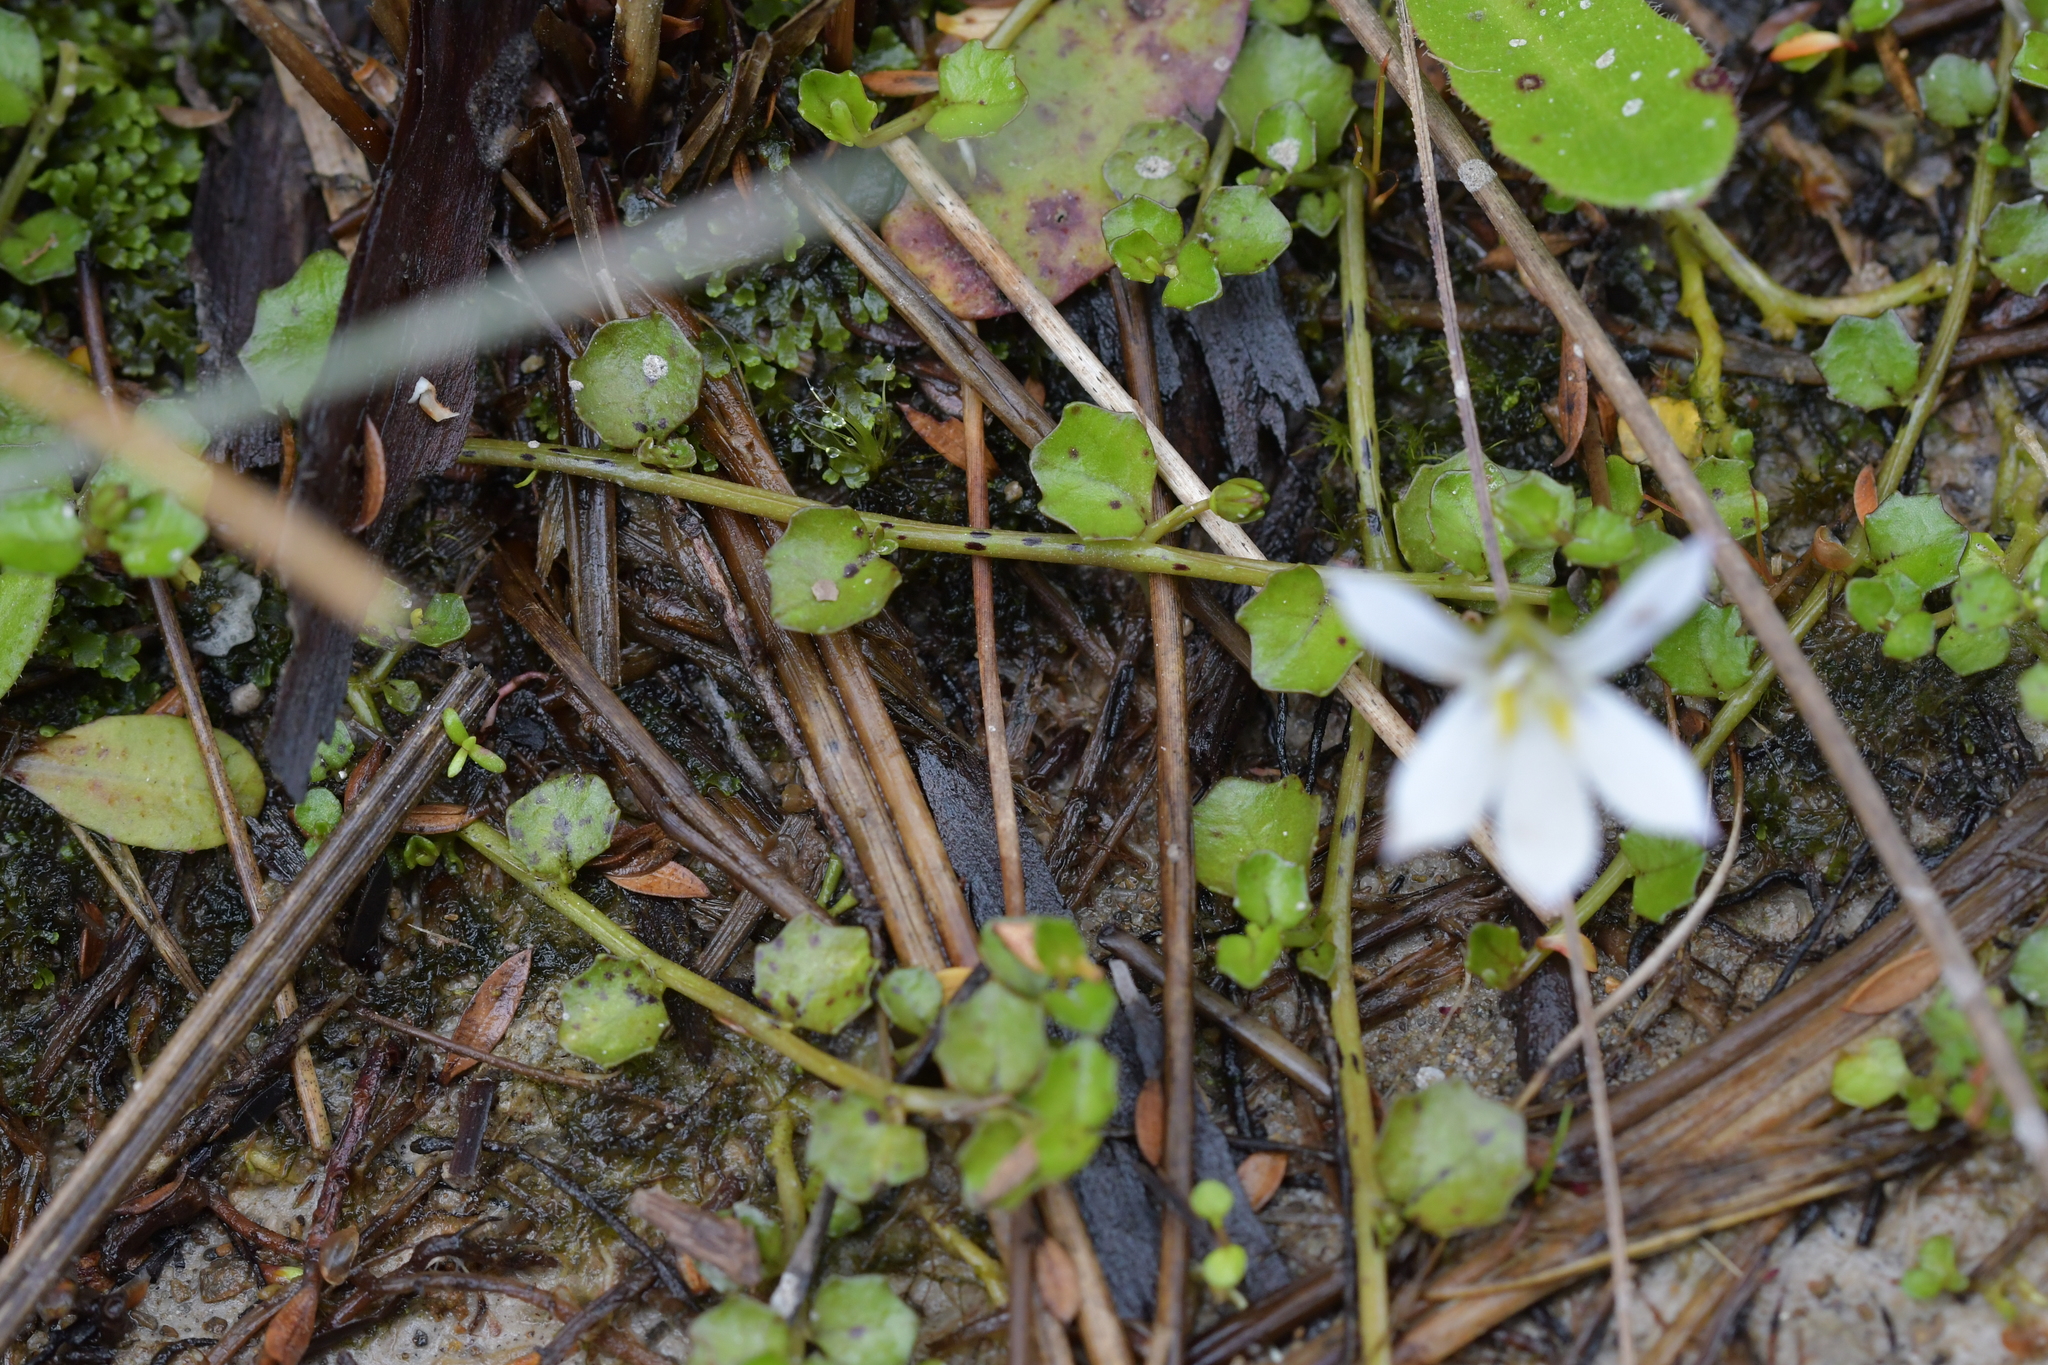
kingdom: Plantae
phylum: Tracheophyta
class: Magnoliopsida
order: Asterales
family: Campanulaceae
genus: Lobelia
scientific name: Lobelia angulata
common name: Lawn lobelia
